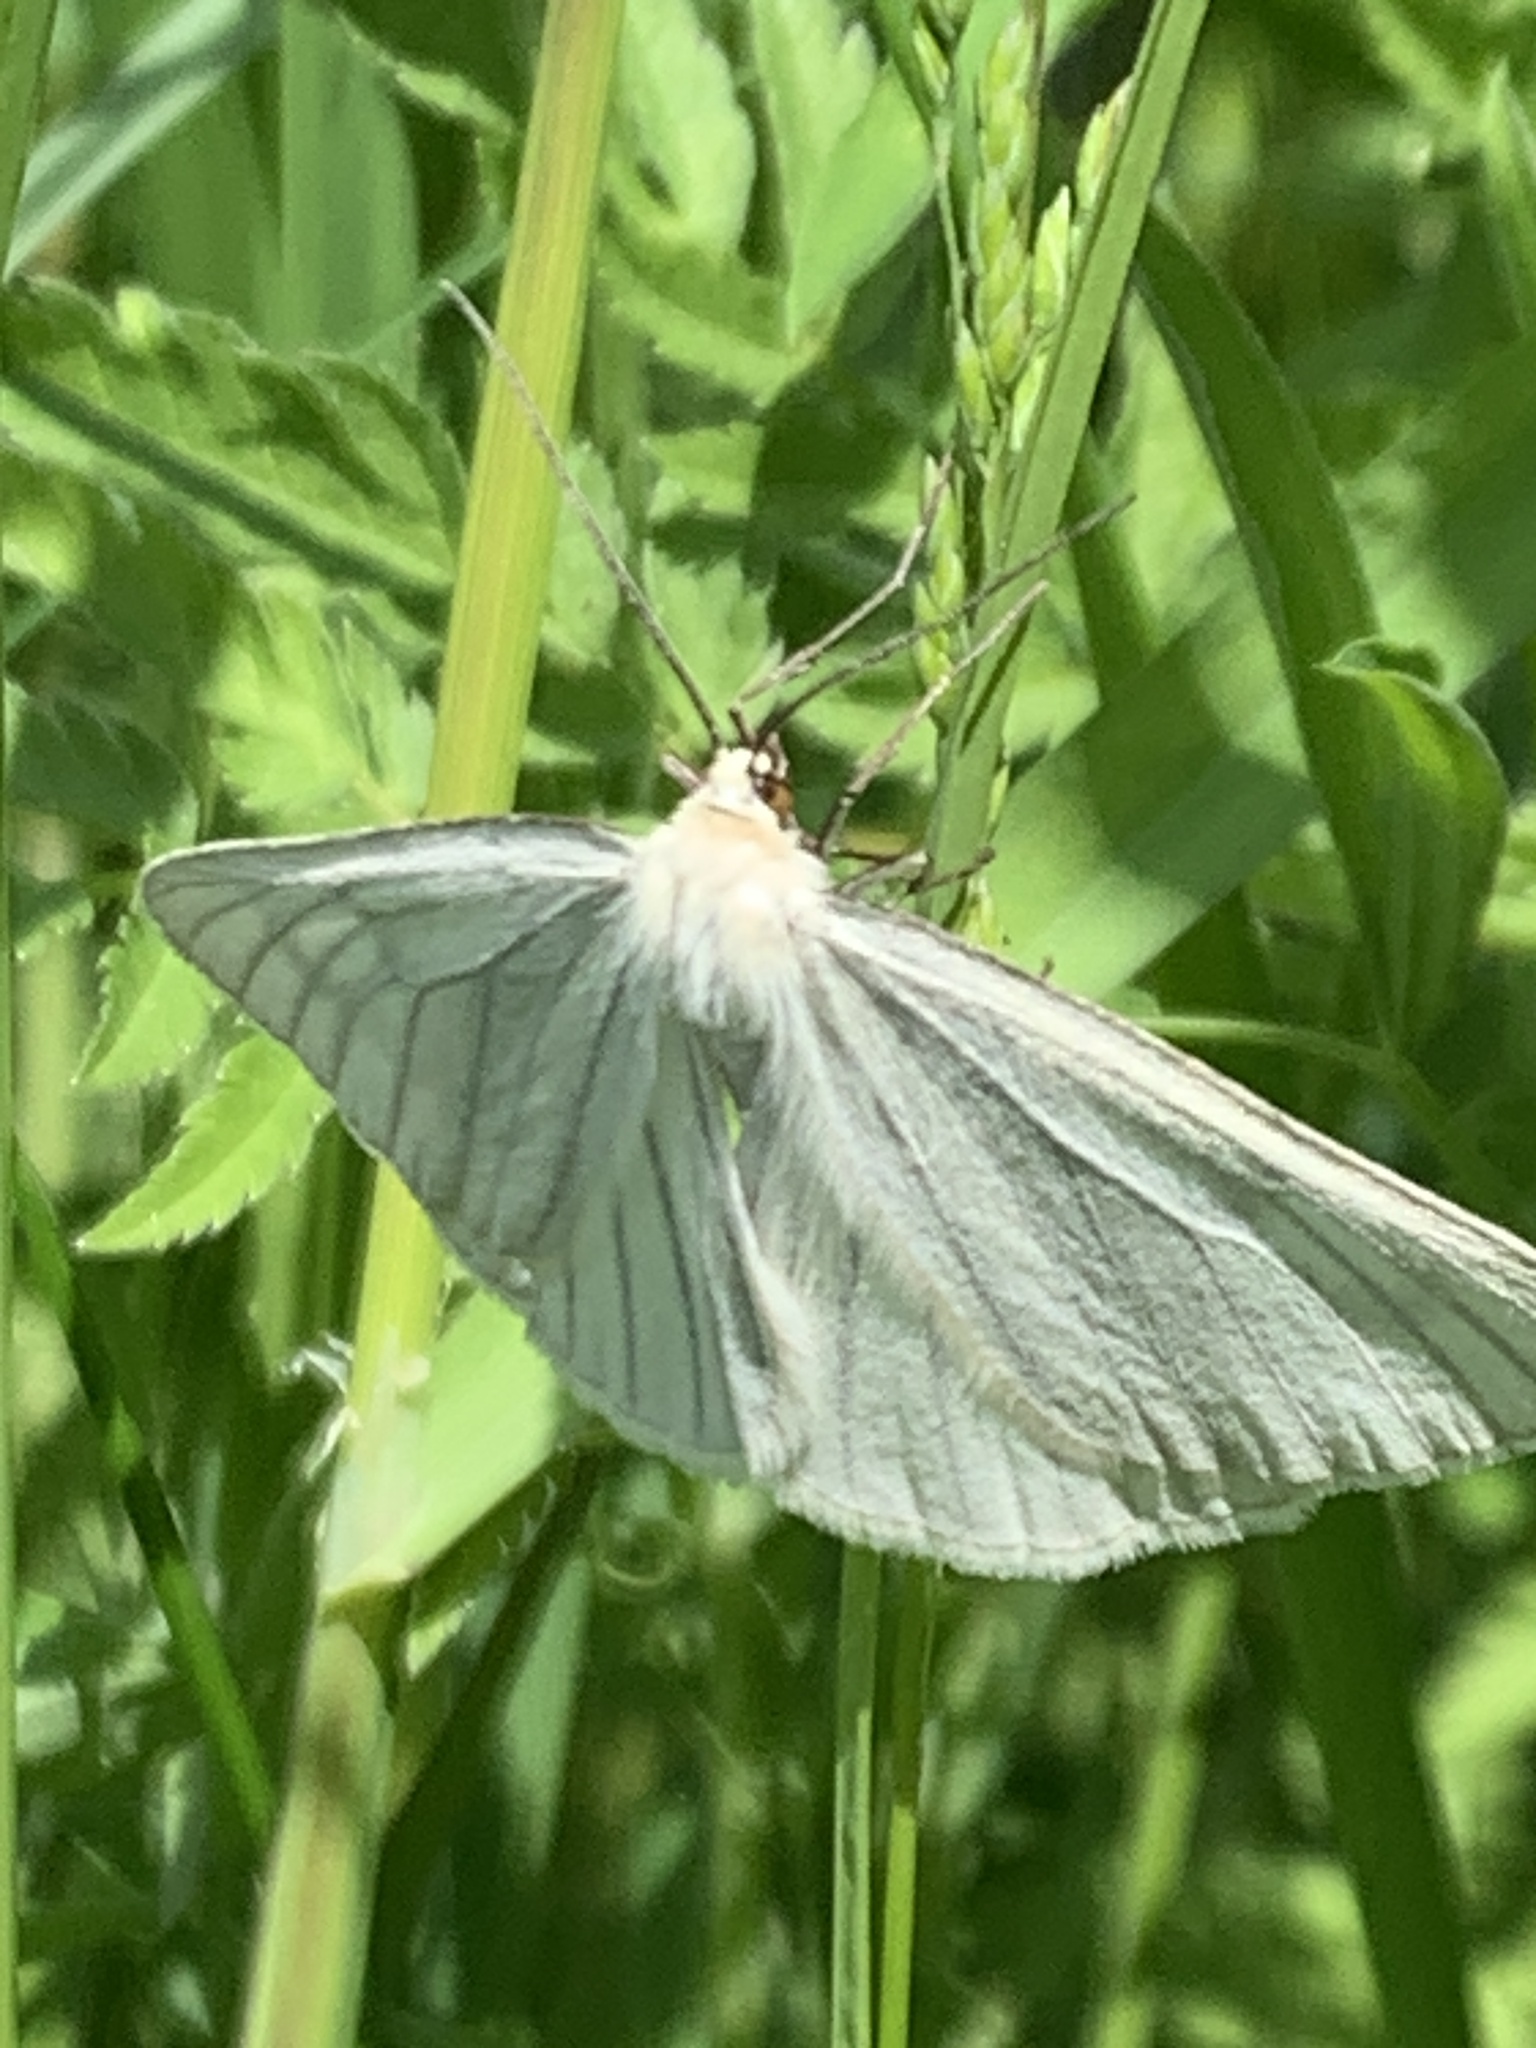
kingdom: Animalia
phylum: Arthropoda
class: Insecta
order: Lepidoptera
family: Geometridae
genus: Siona
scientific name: Siona lineata
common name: Black-veined moth
